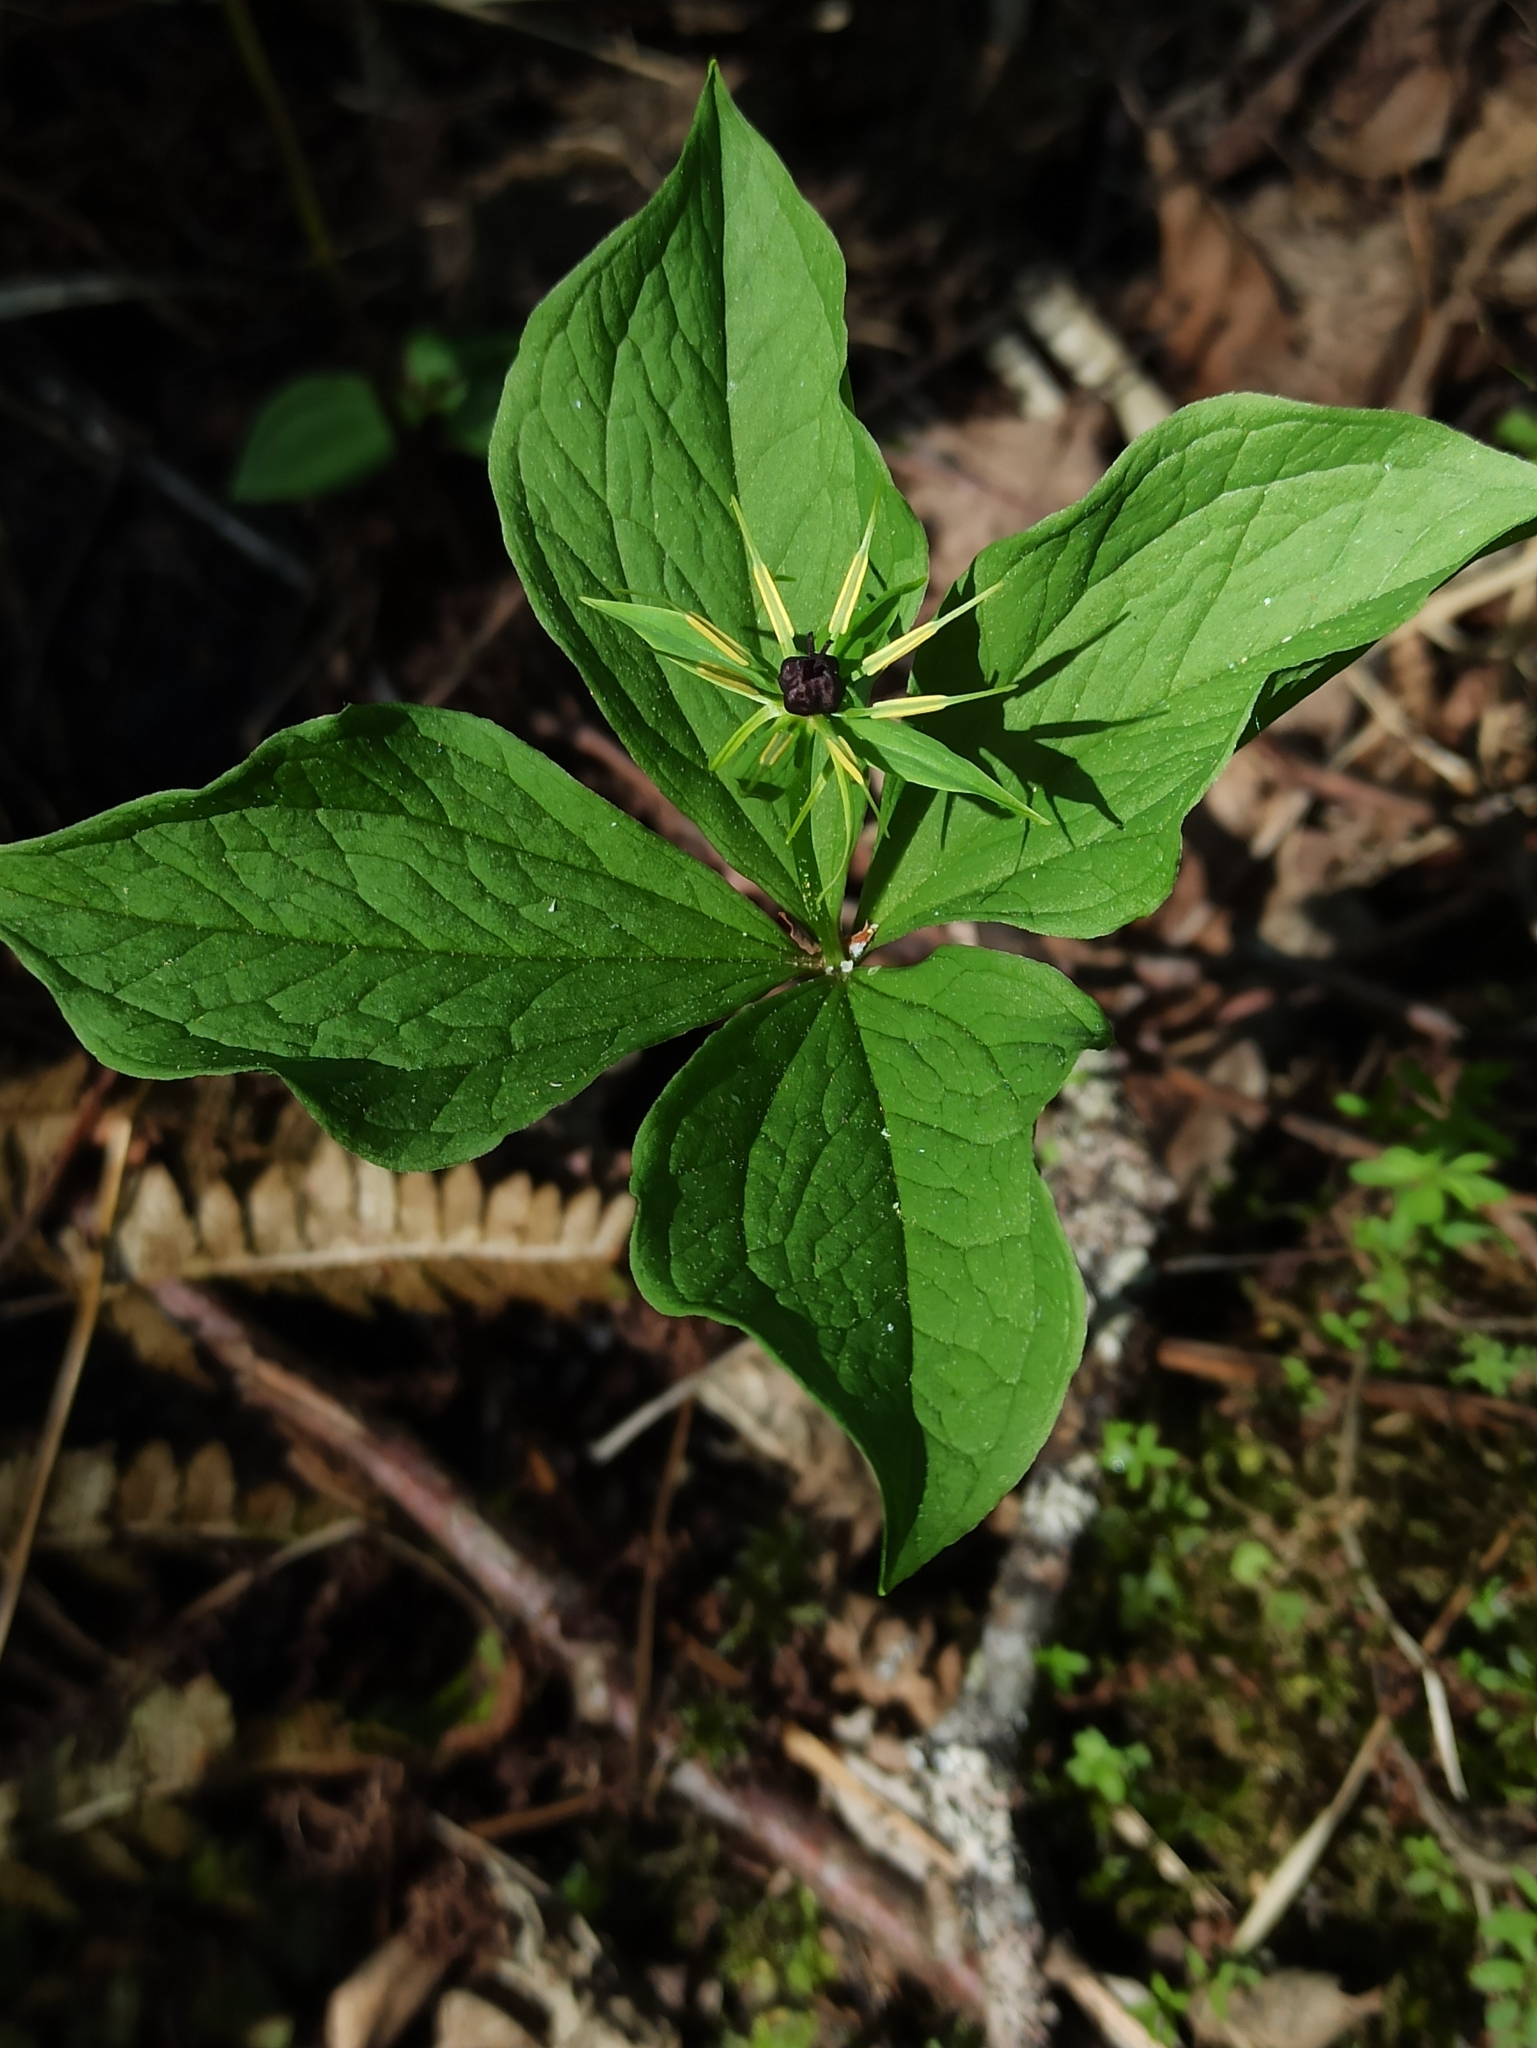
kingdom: Plantae
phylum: Tracheophyta
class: Liliopsida
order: Liliales
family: Melanthiaceae
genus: Paris
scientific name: Paris quadrifolia
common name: Herb-paris
